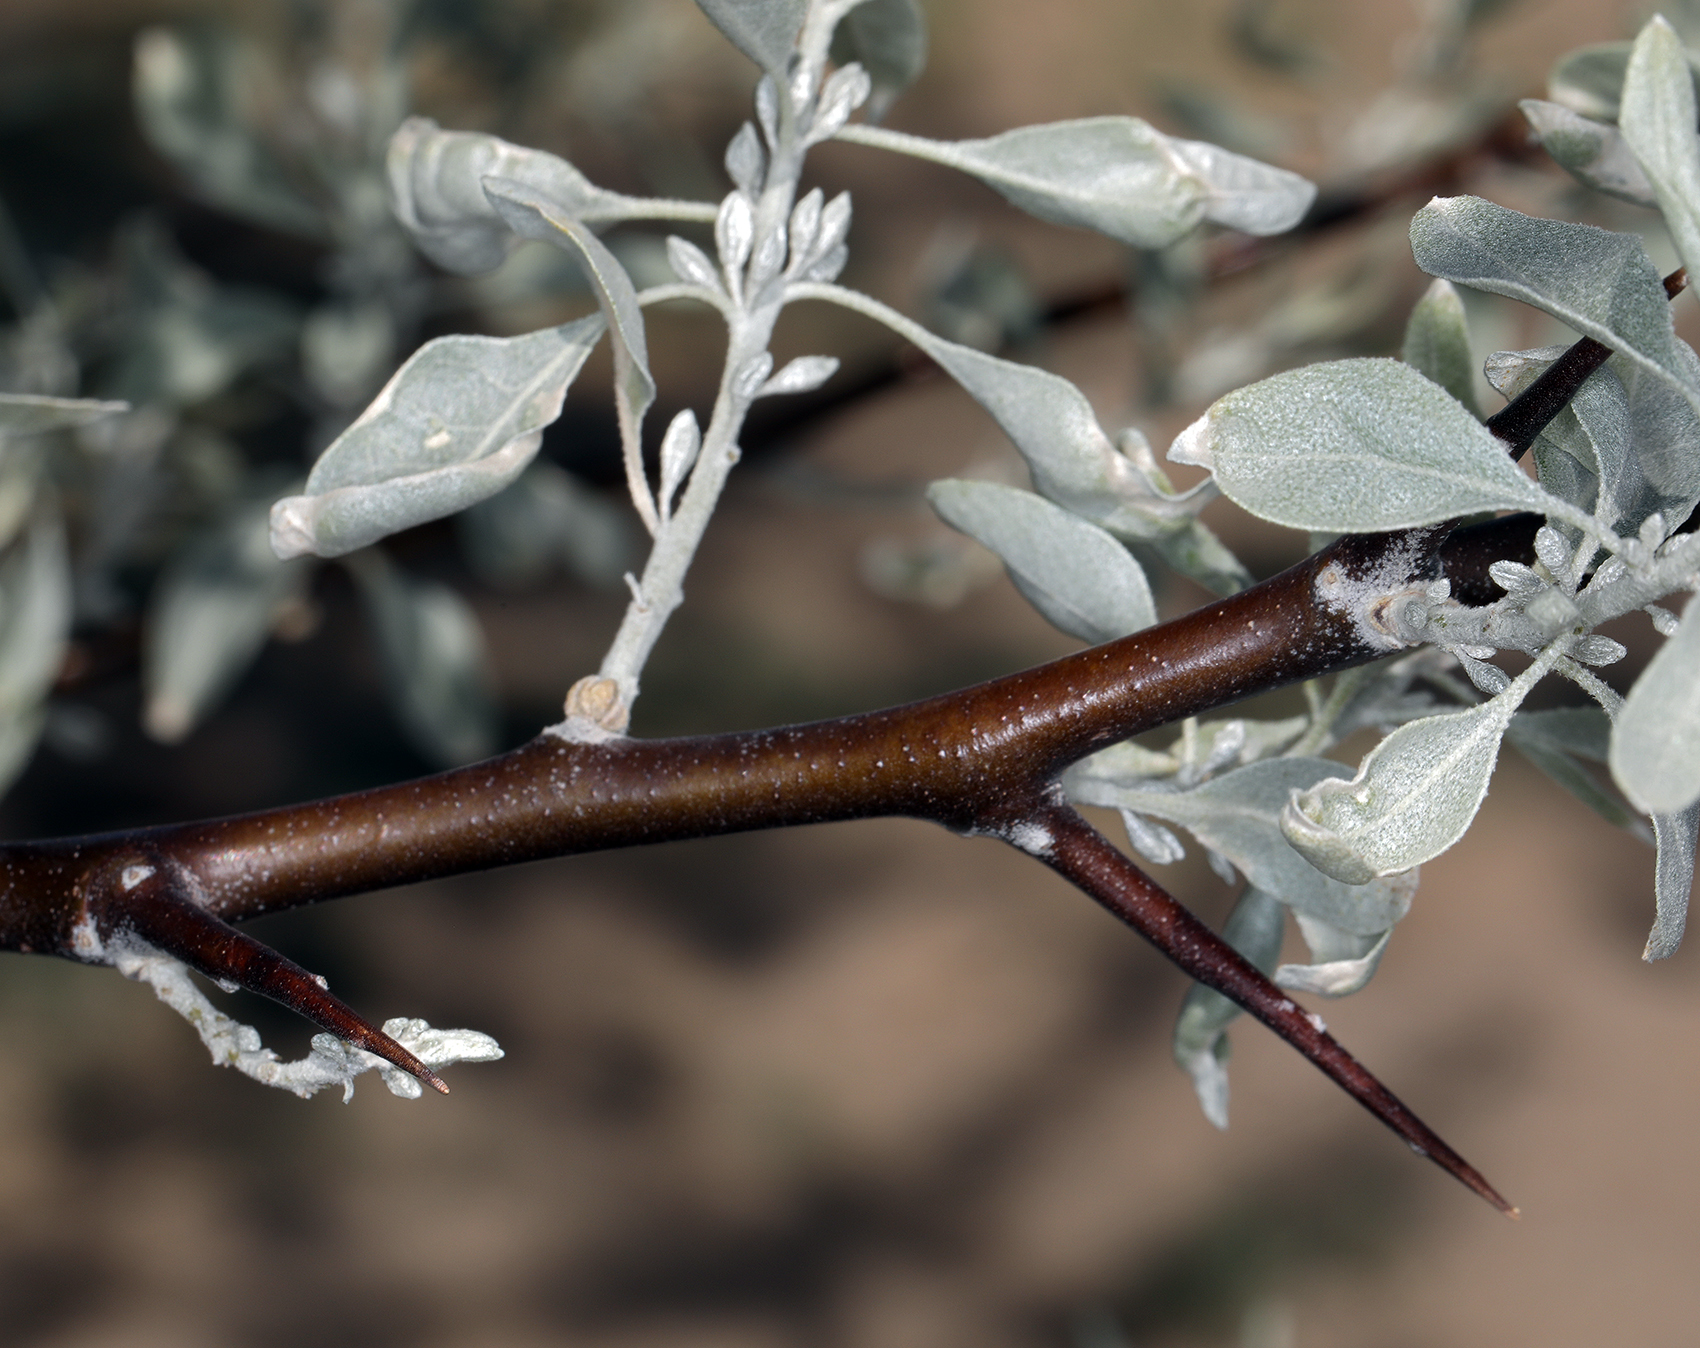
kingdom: Plantae
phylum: Tracheophyta
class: Magnoliopsida
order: Rosales
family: Elaeagnaceae
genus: Elaeagnus
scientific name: Elaeagnus angustifolia
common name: Russian olive
